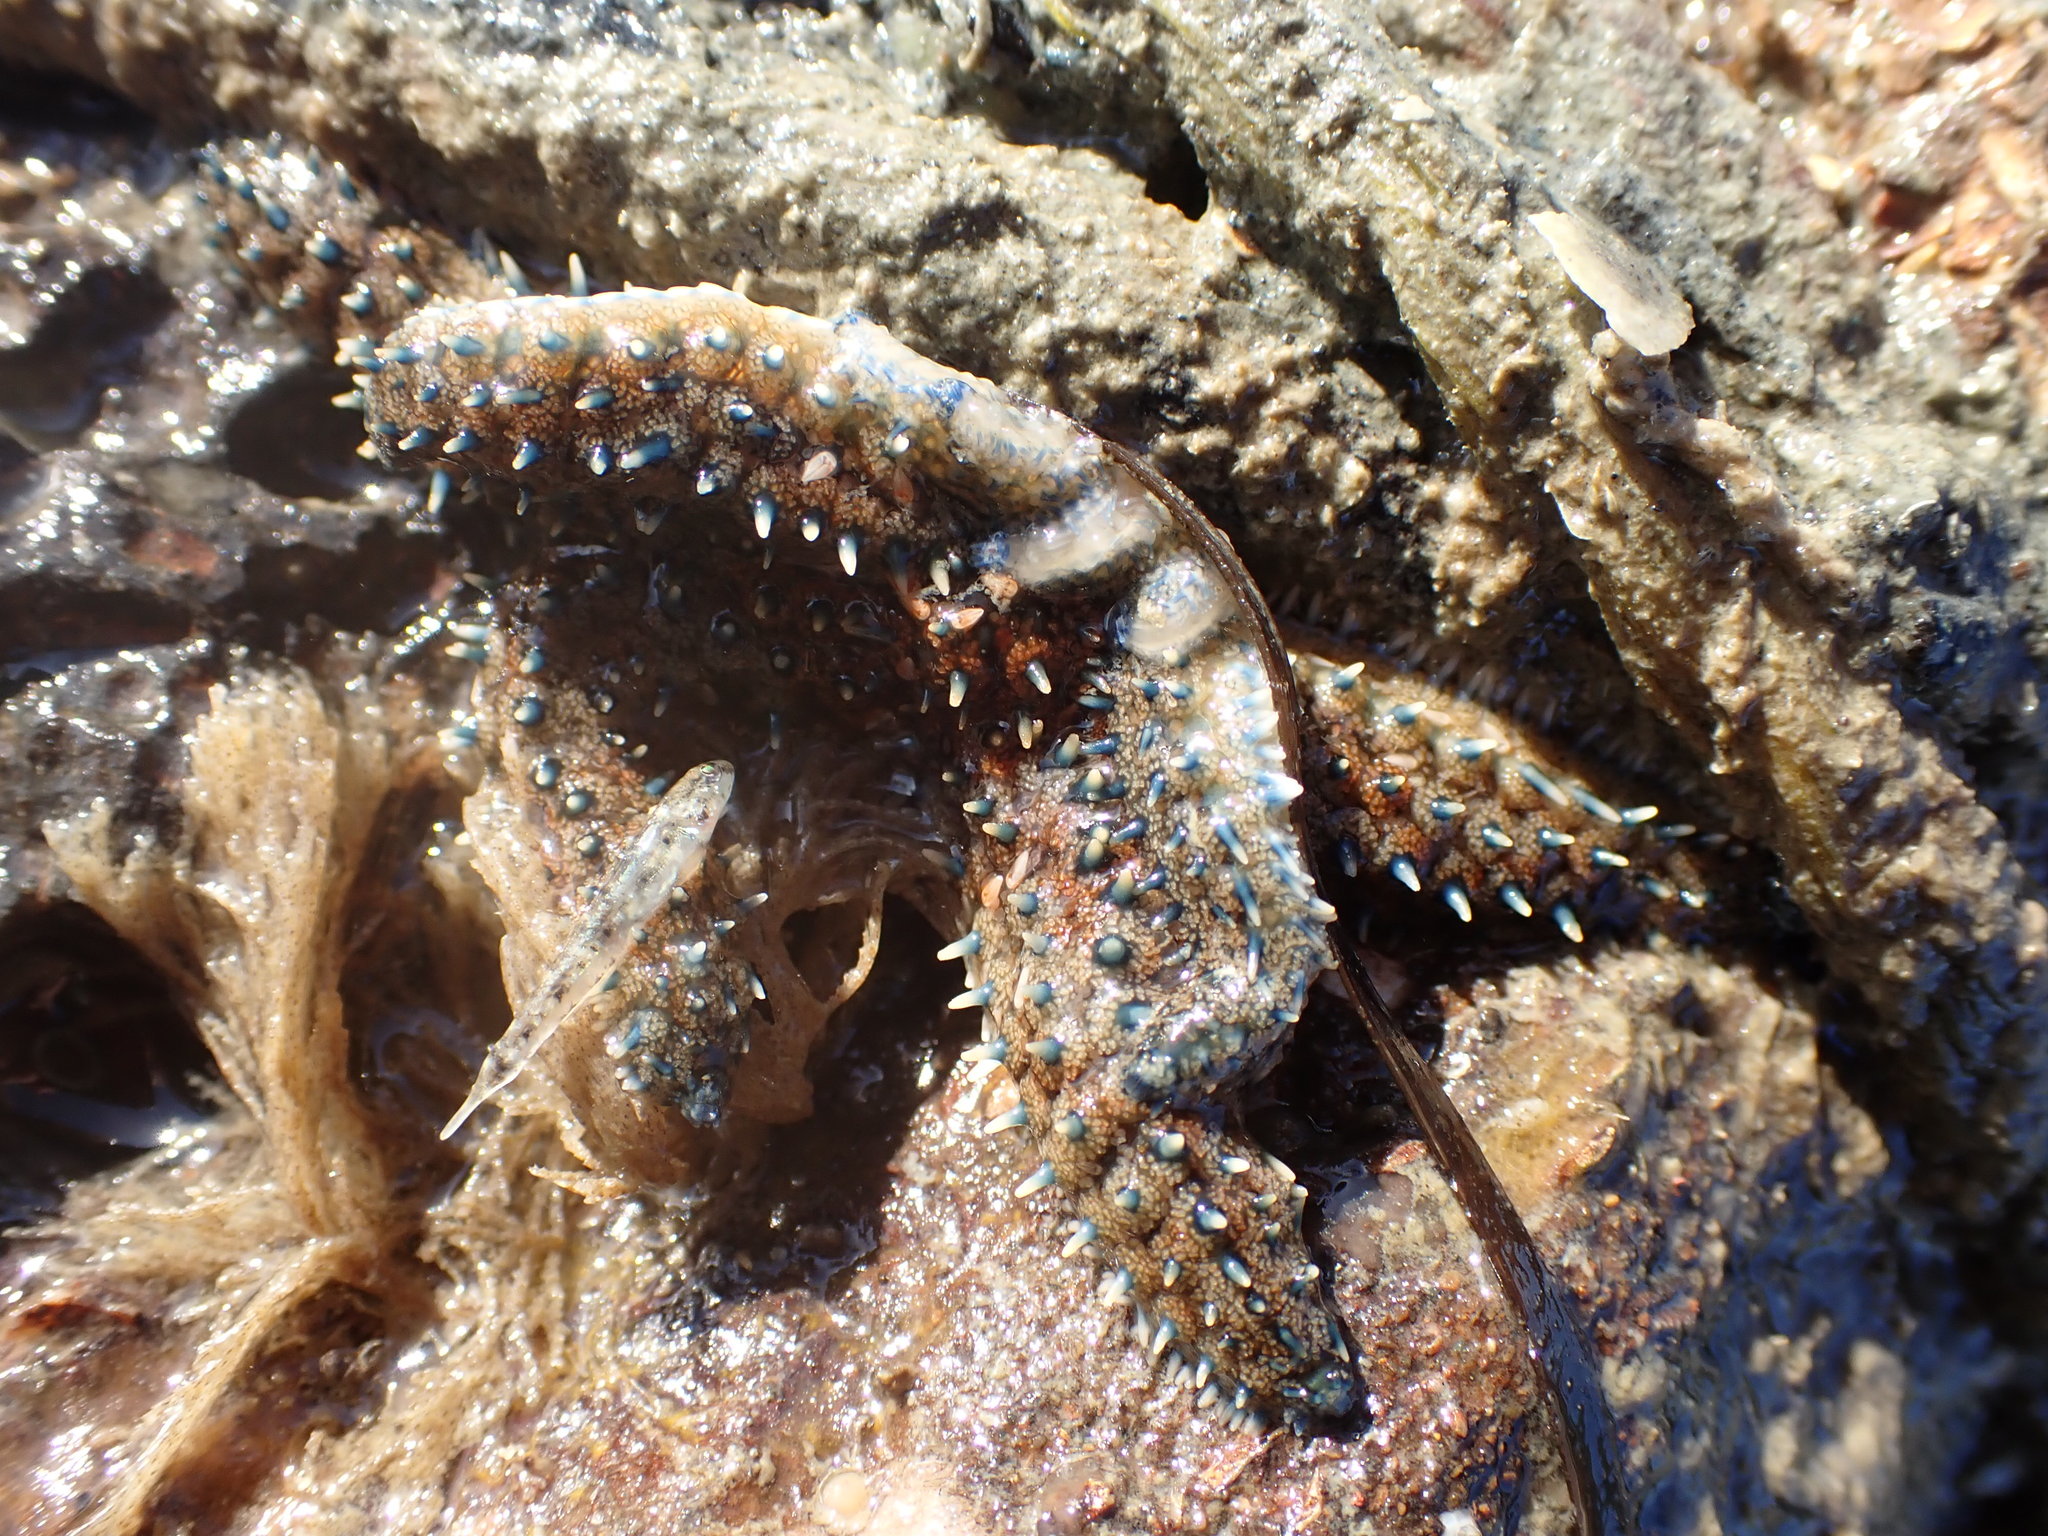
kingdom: Animalia
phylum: Echinodermata
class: Asteroidea
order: Forcipulatida
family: Asteriidae
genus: Coscinasterias
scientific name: Coscinasterias muricata
